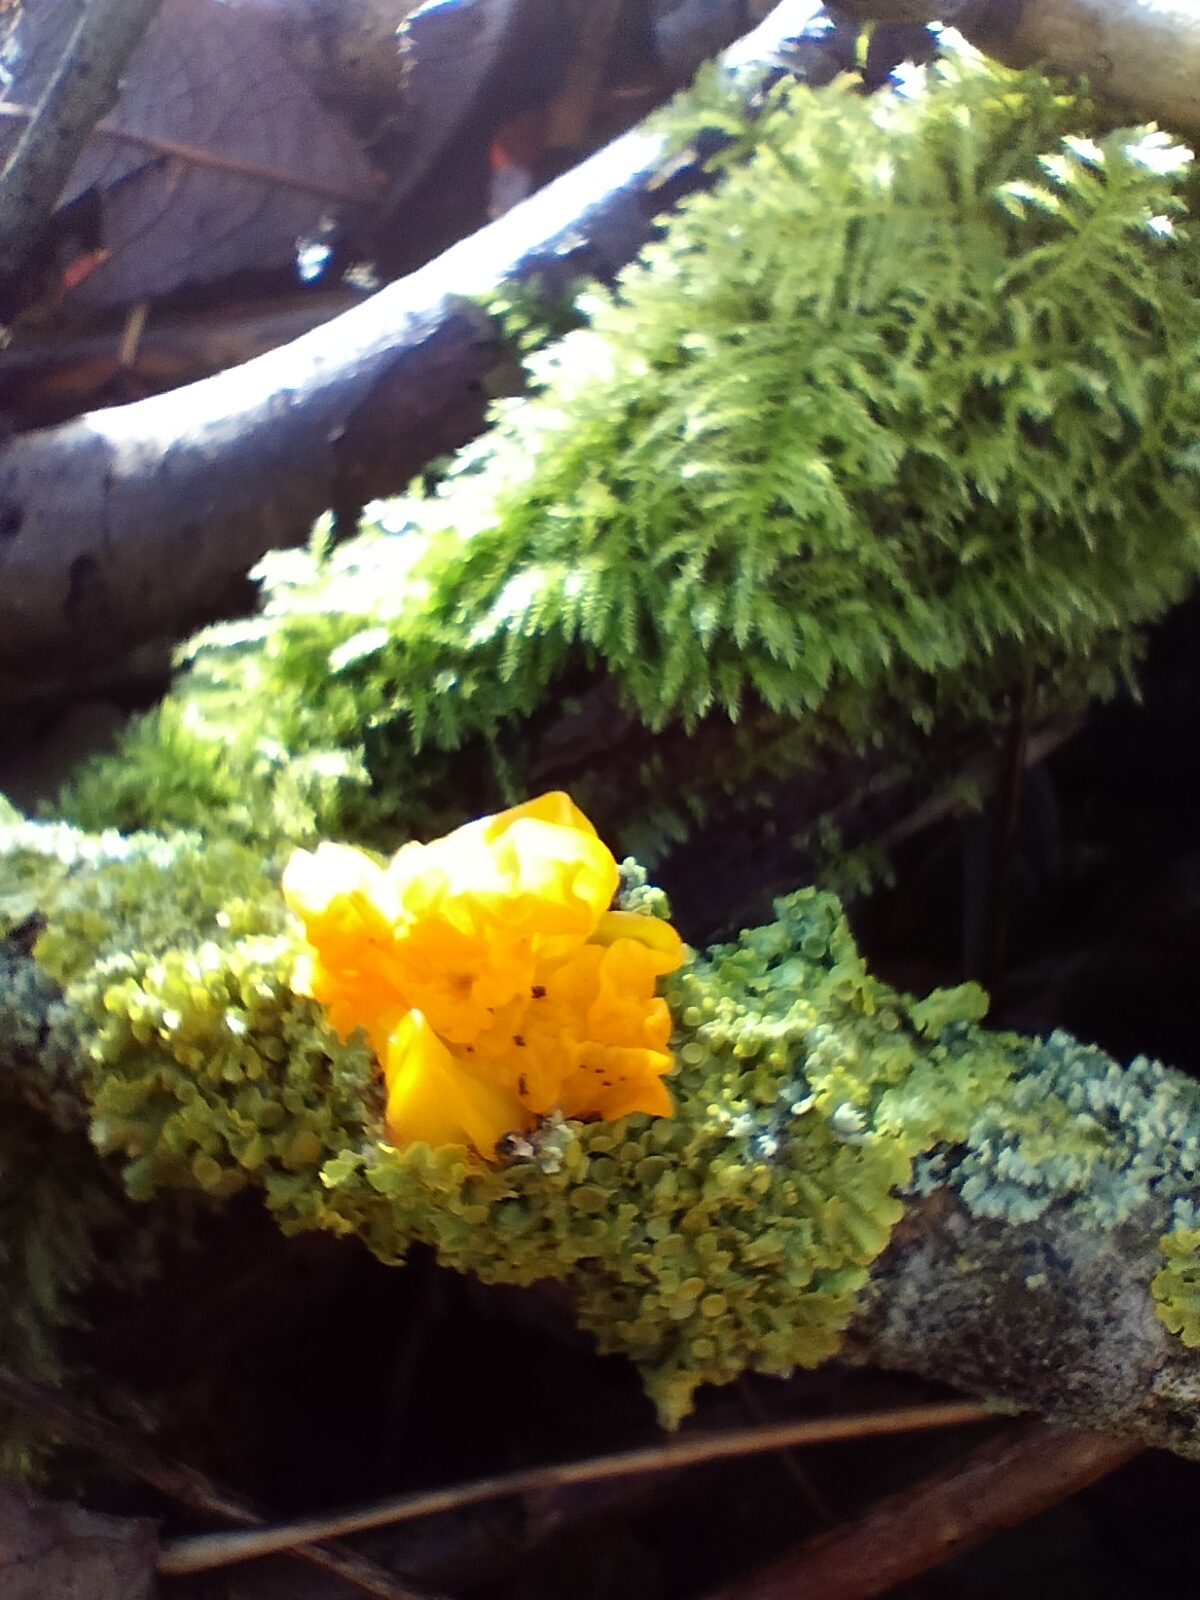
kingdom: Fungi
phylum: Basidiomycota
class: Tremellomycetes
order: Tremellales
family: Tremellaceae
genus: Tremella
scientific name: Tremella mesenterica
